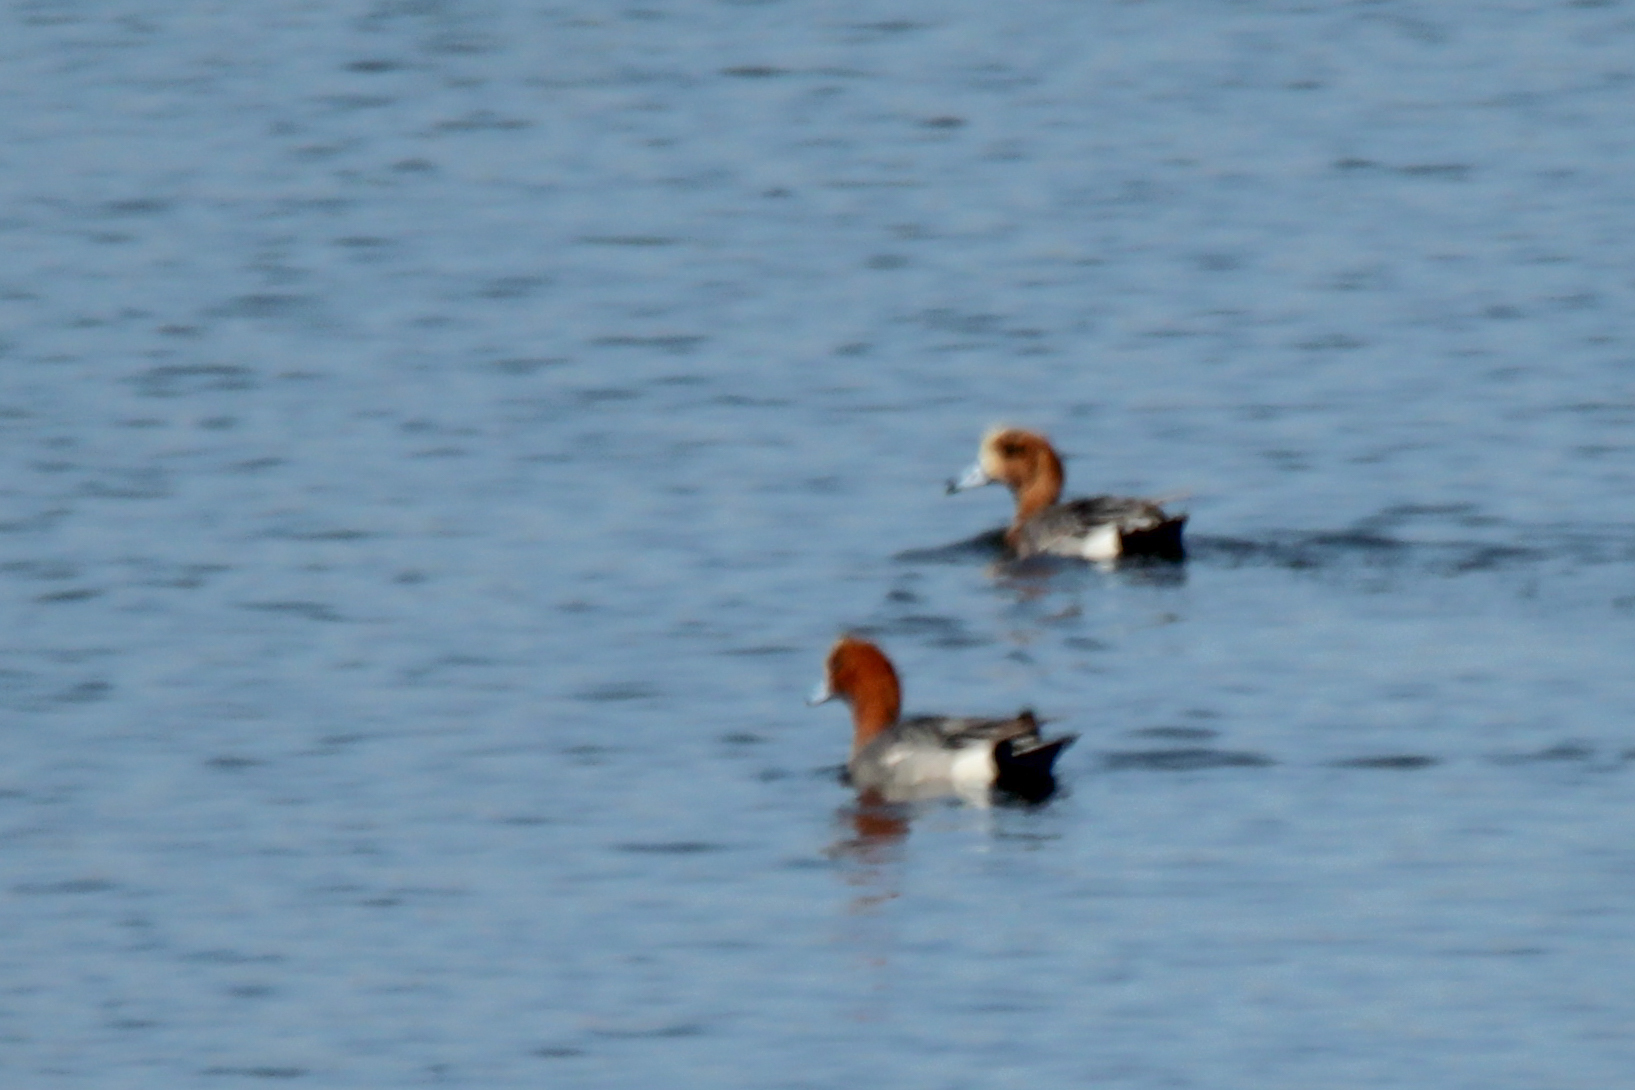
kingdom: Animalia
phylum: Chordata
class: Aves
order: Anseriformes
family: Anatidae
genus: Mareca
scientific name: Mareca penelope
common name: Eurasian wigeon
